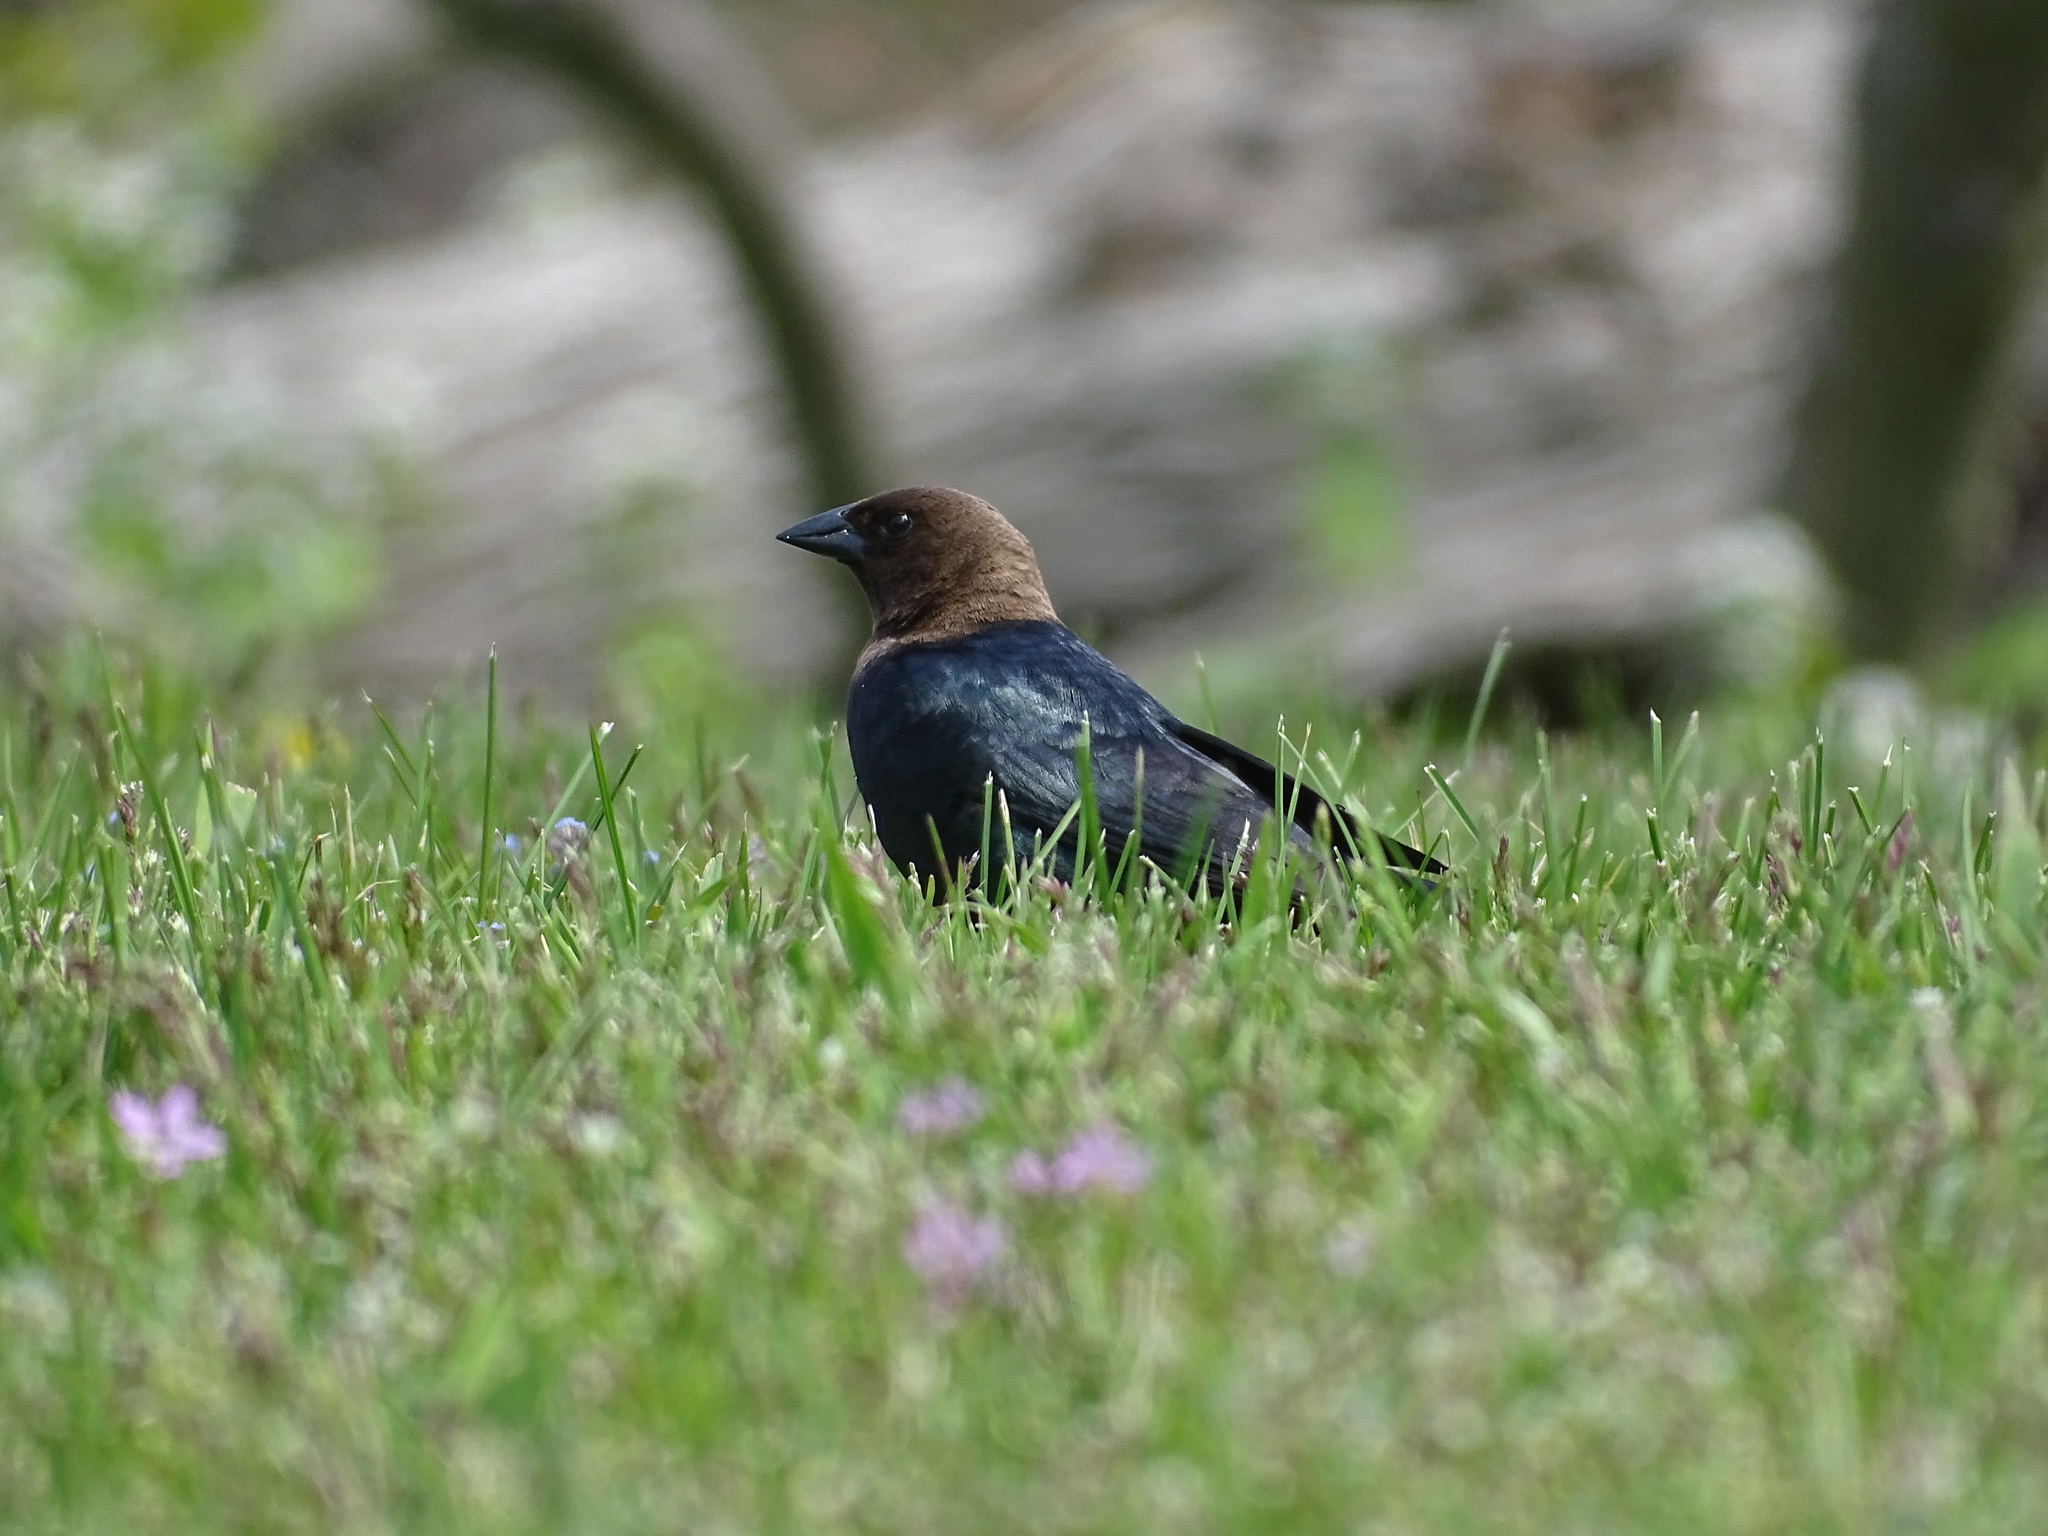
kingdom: Animalia
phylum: Chordata
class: Aves
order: Passeriformes
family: Icteridae
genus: Molothrus
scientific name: Molothrus ater
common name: Brown-headed cowbird
